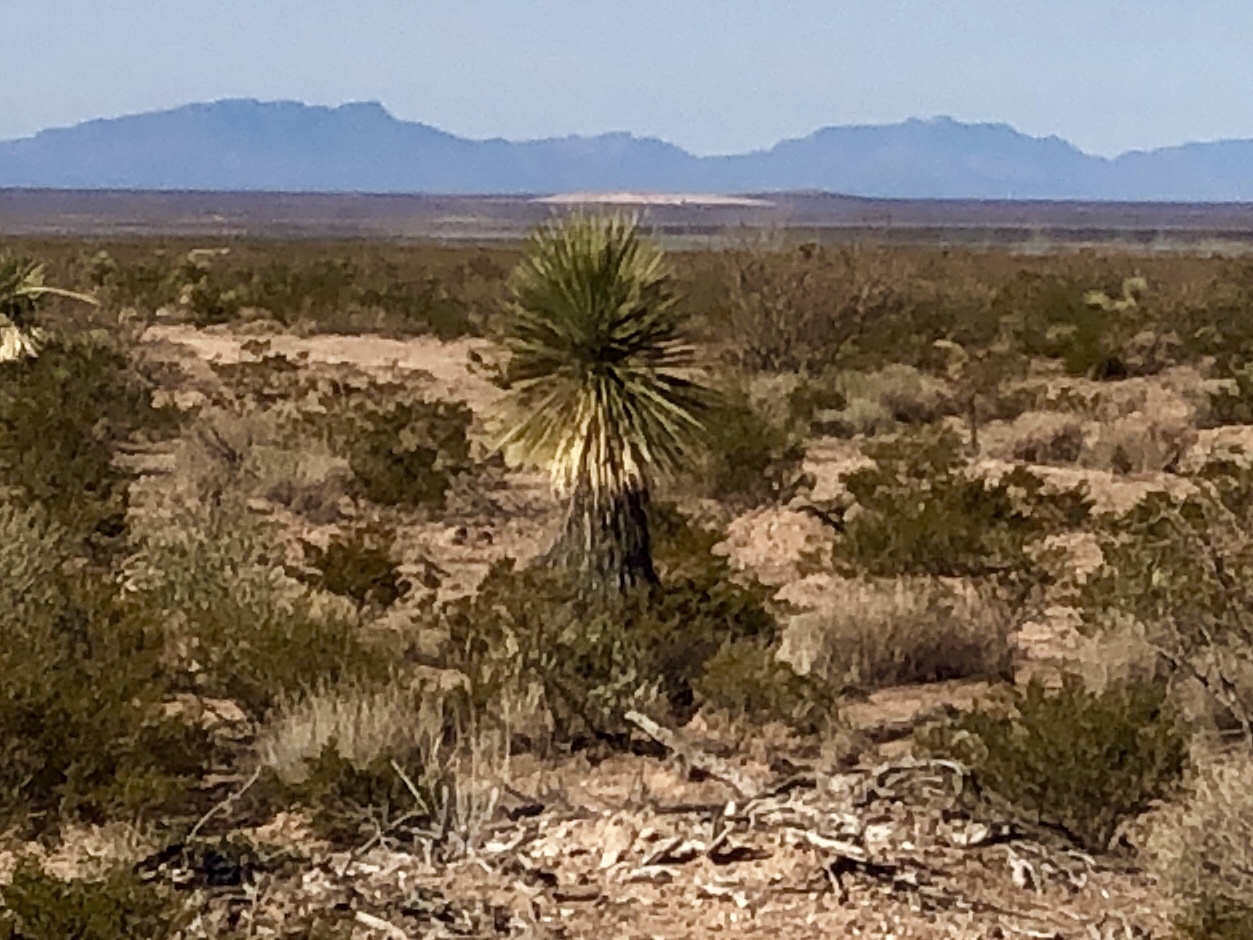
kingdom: Plantae
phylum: Tracheophyta
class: Liliopsida
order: Asparagales
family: Asparagaceae
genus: Yucca
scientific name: Yucca elata
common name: Palmella
